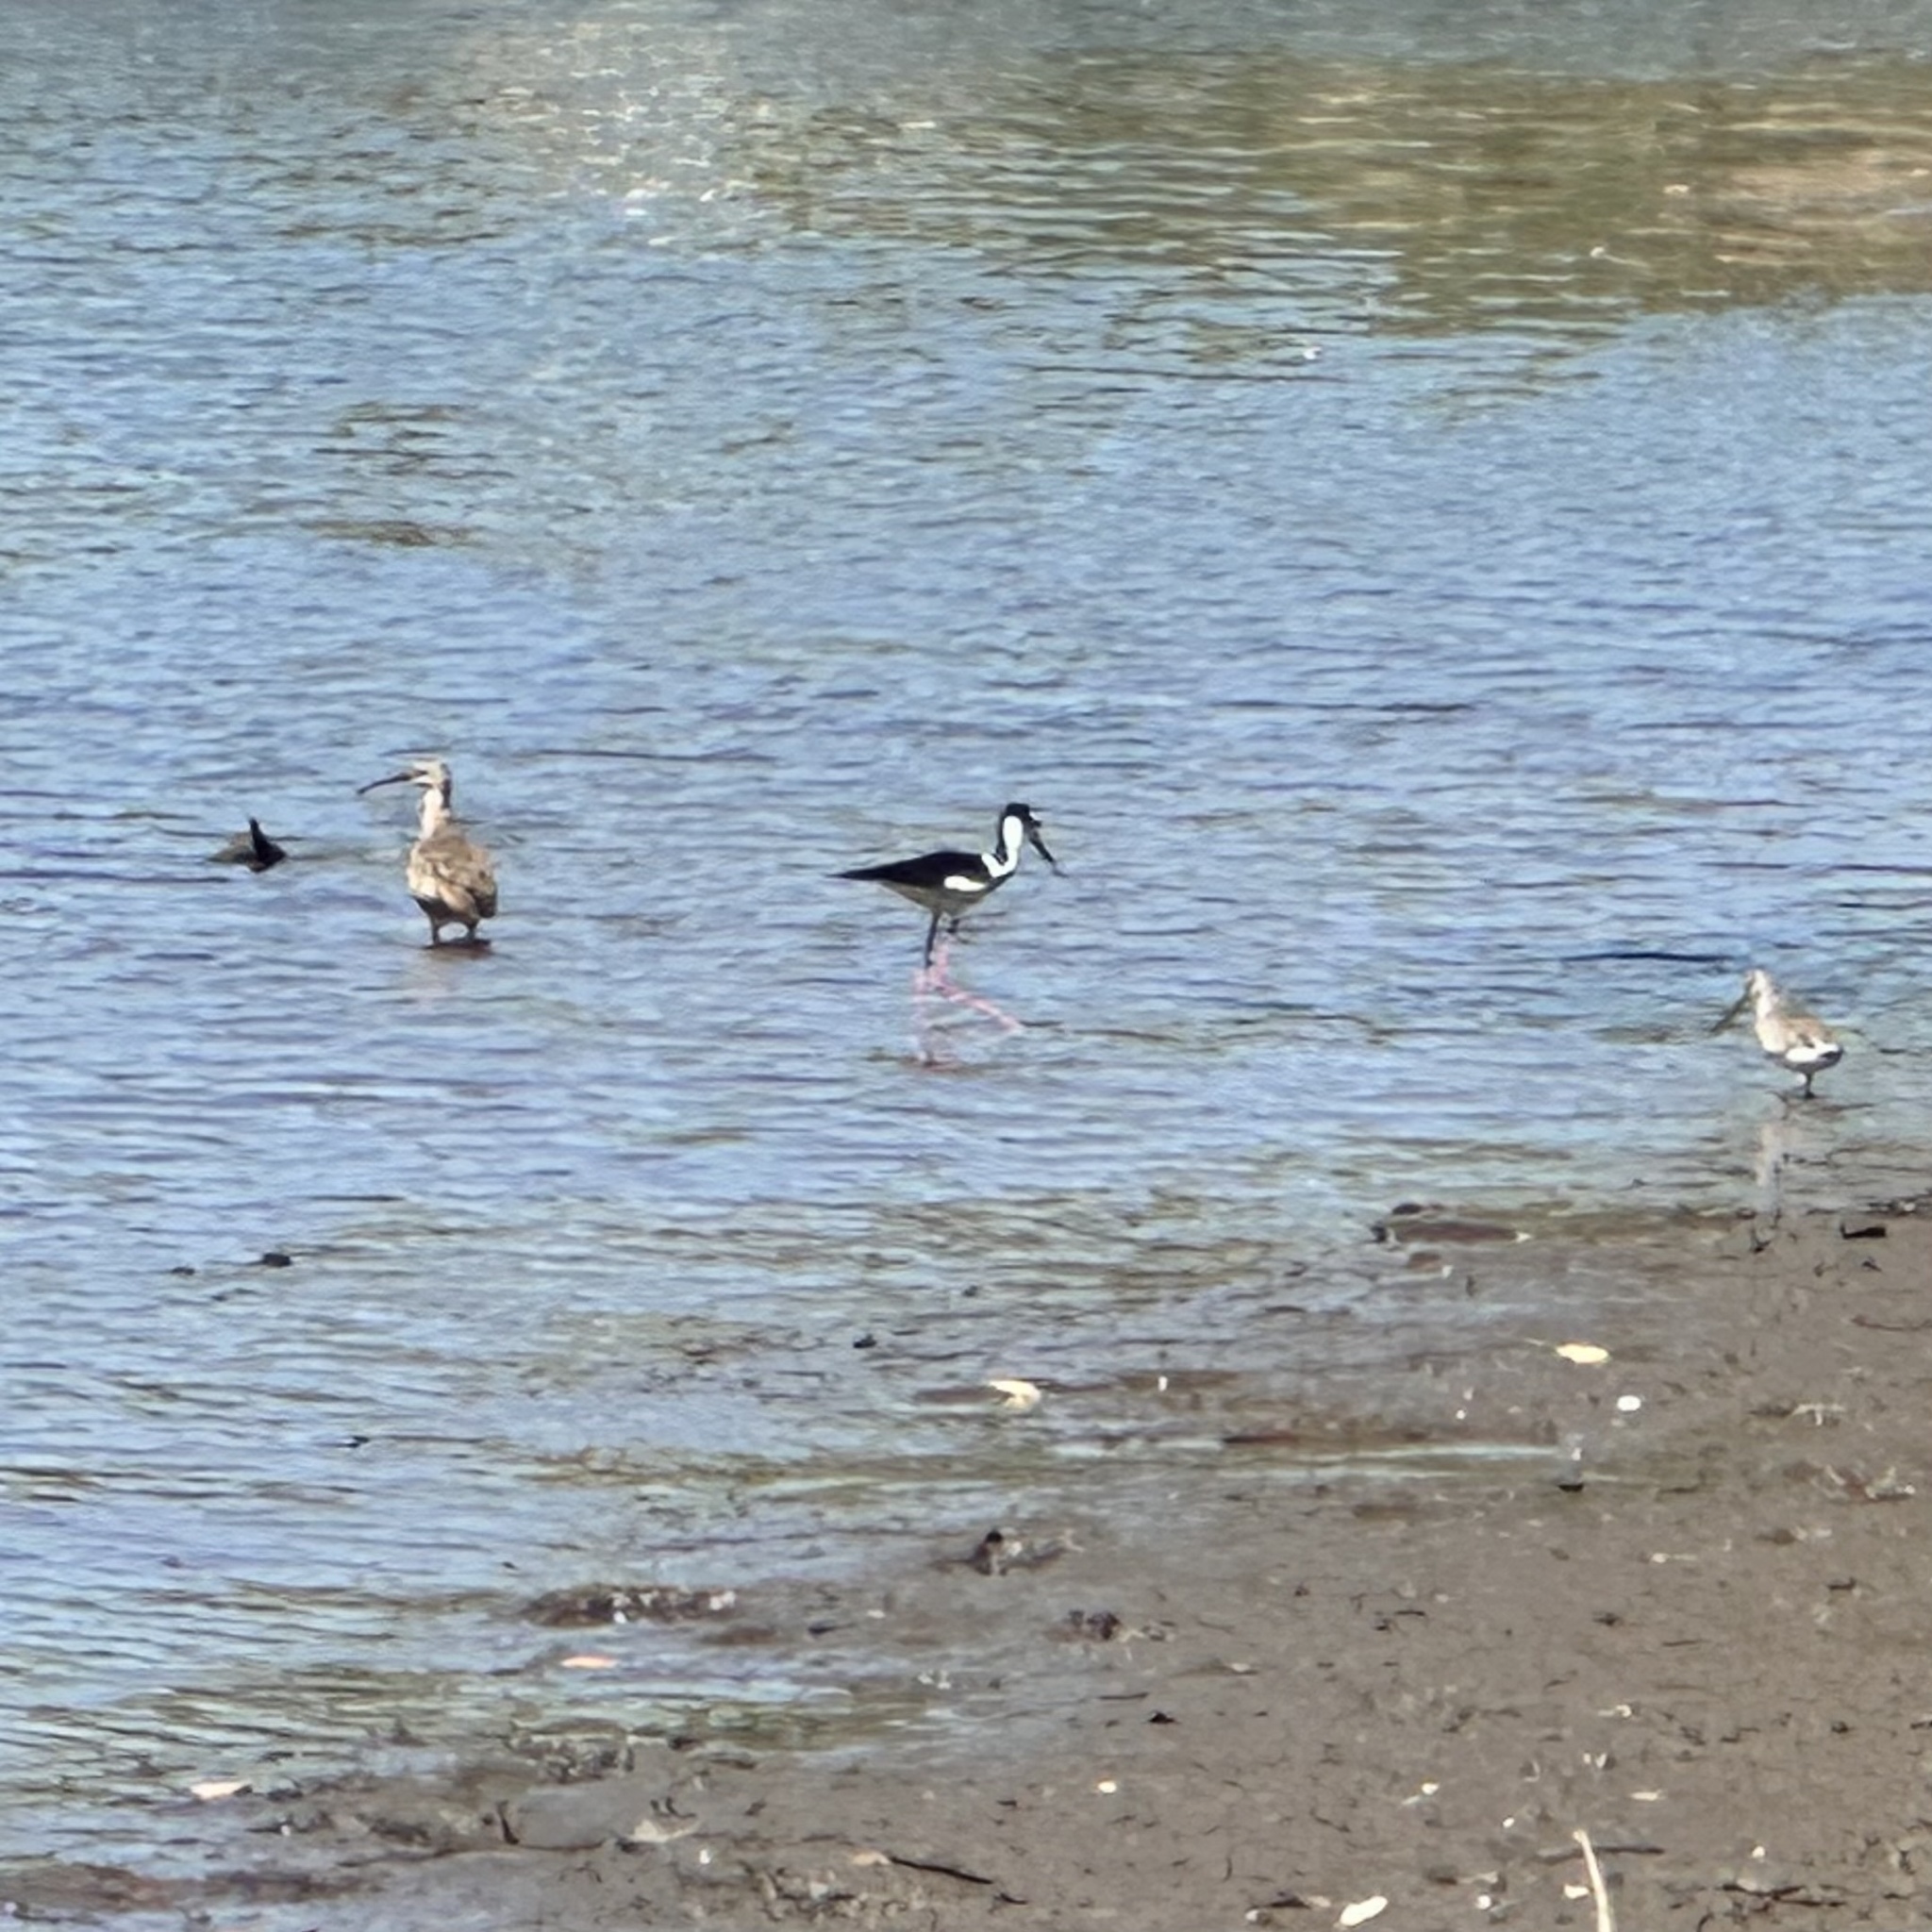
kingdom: Animalia
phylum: Chordata
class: Aves
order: Charadriiformes
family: Scolopacidae
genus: Numenius
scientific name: Numenius phaeopus
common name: Whimbrel
